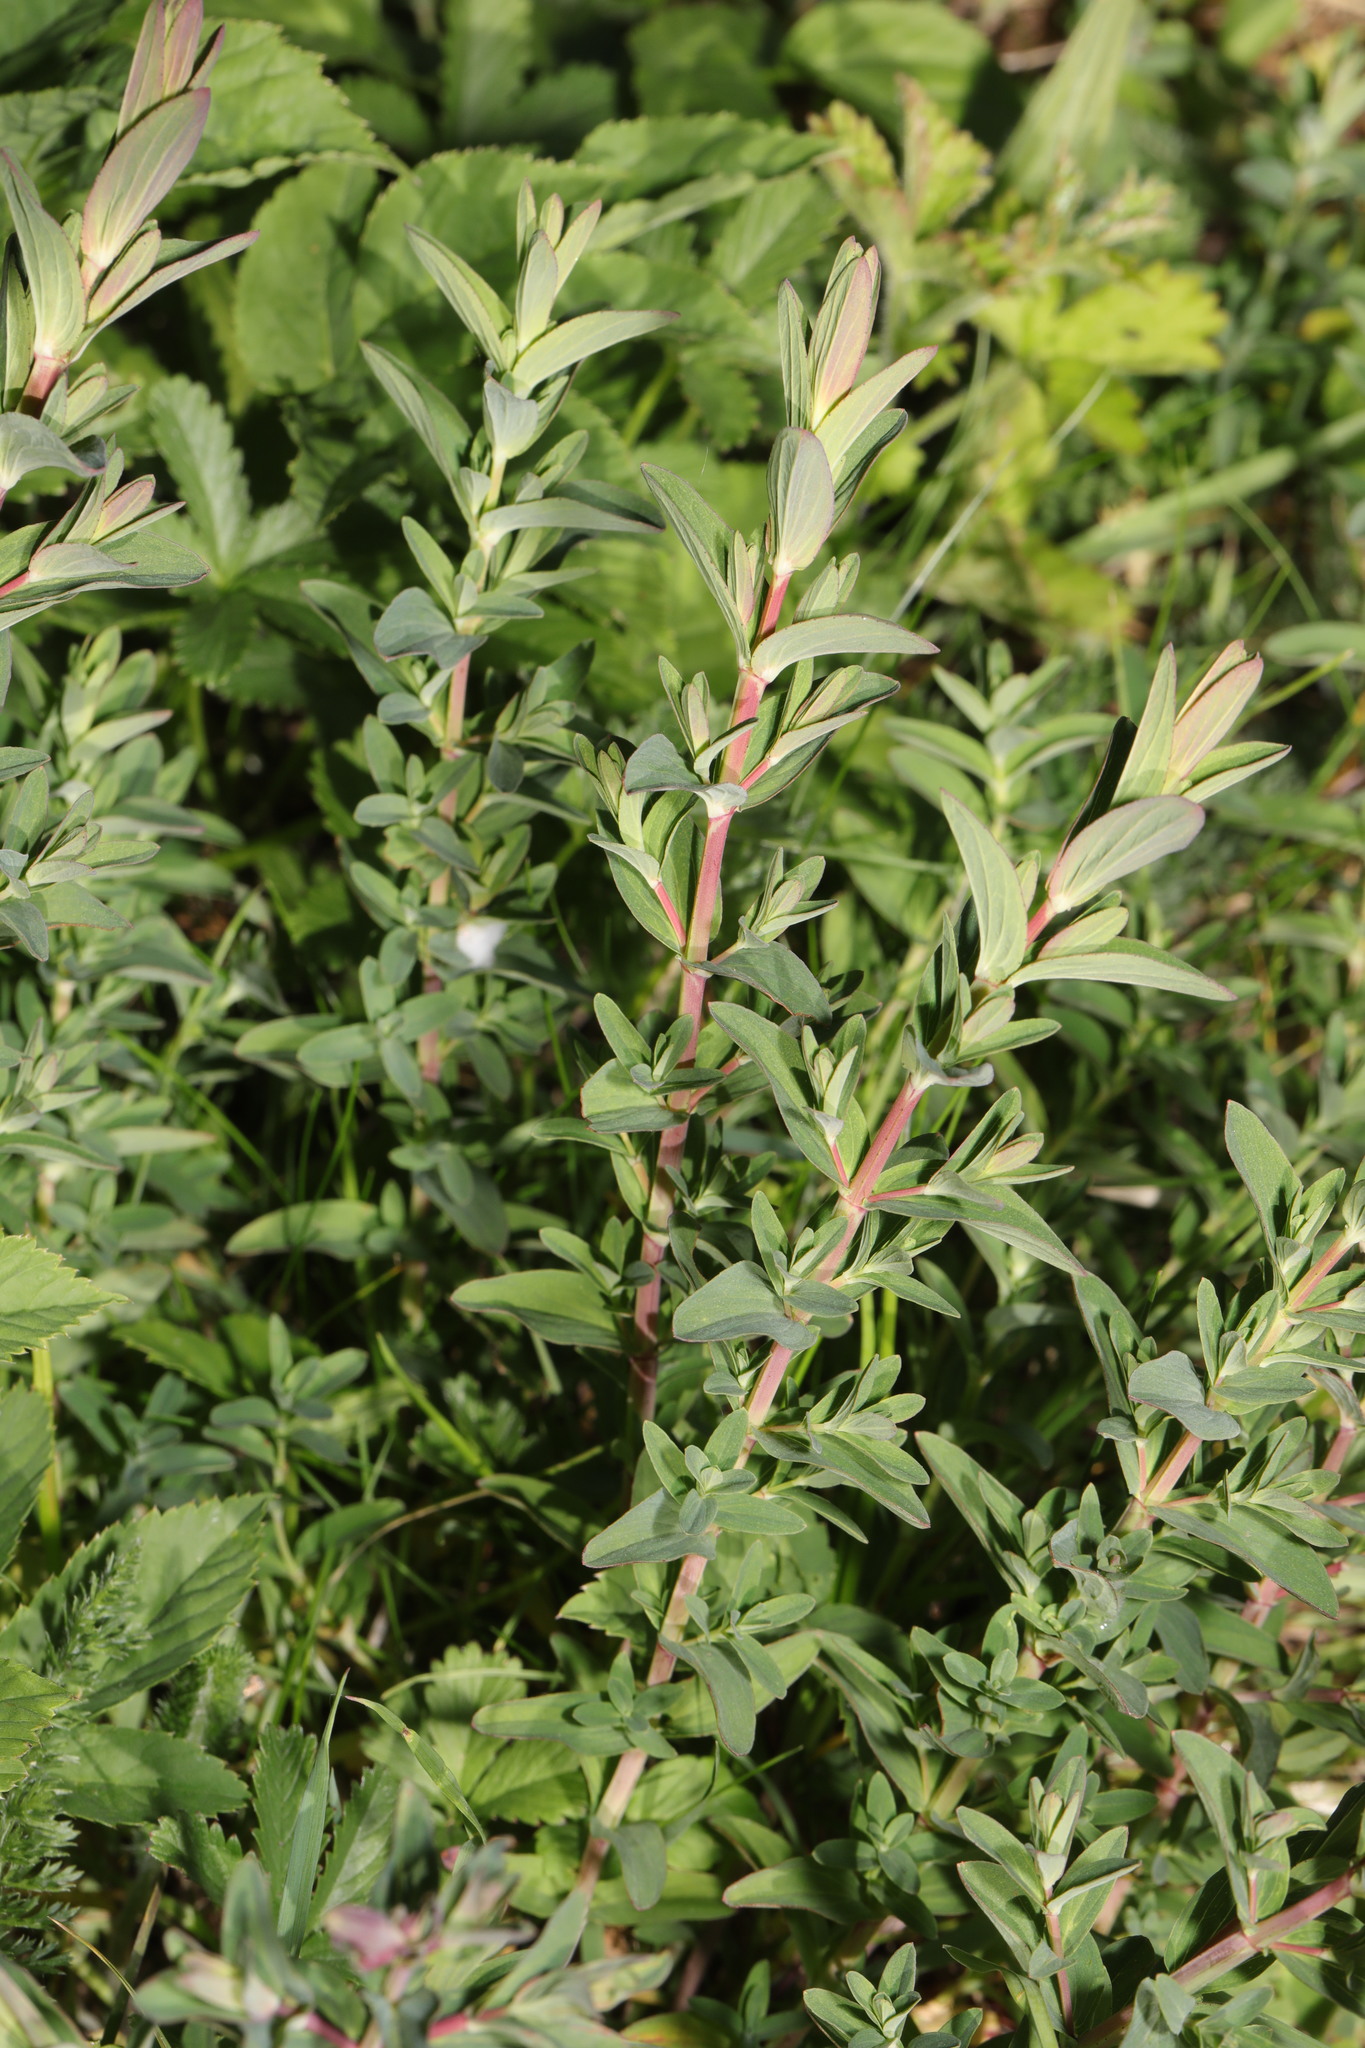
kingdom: Plantae
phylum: Tracheophyta
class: Magnoliopsida
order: Malpighiales
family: Hypericaceae
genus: Hypericum
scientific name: Hypericum perforatum
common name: Common st. johnswort
